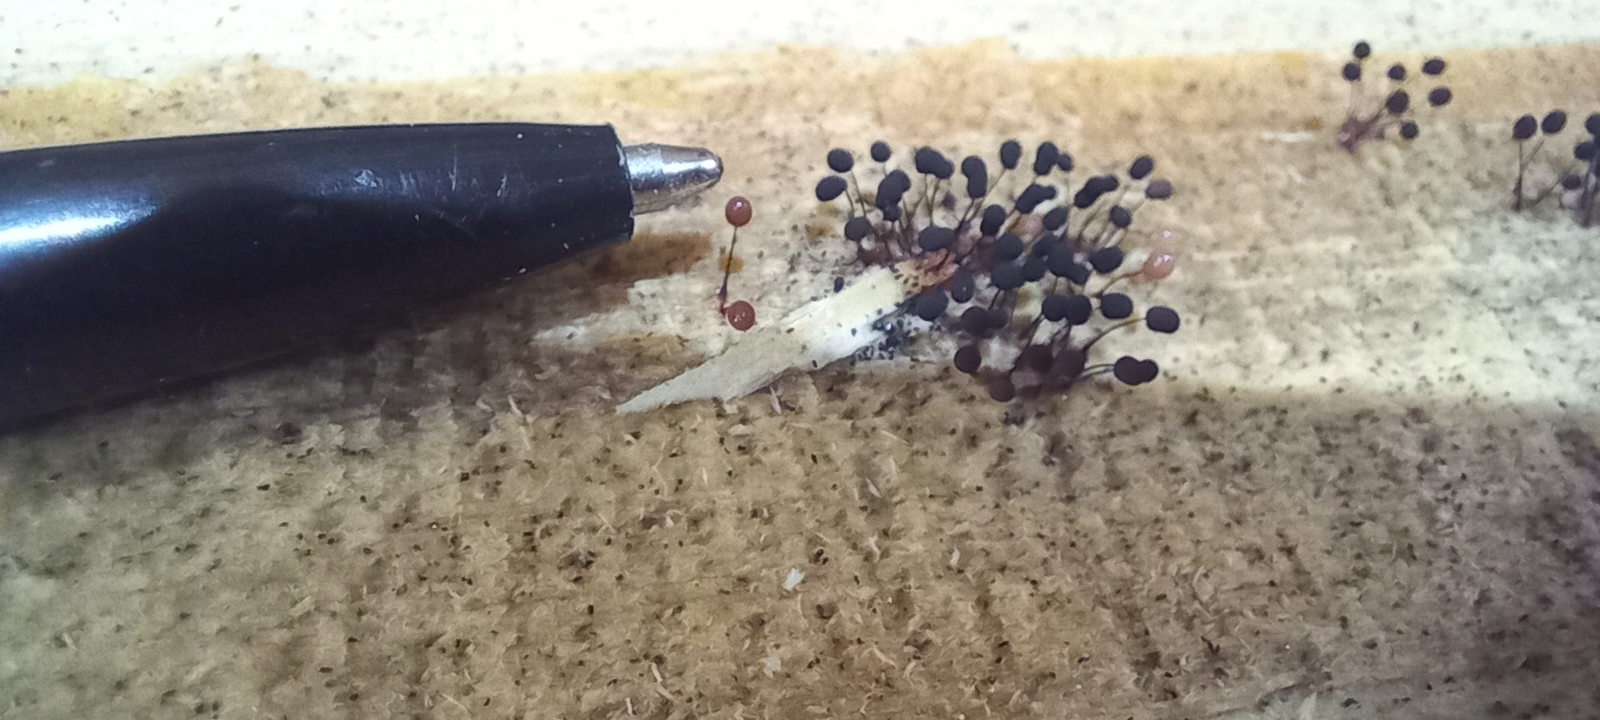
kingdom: Protozoa
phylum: Mycetozoa
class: Myxomycetes
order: Stemonitidales
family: Stemonitidaceae
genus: Comatricha
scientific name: Comatricha nigra
